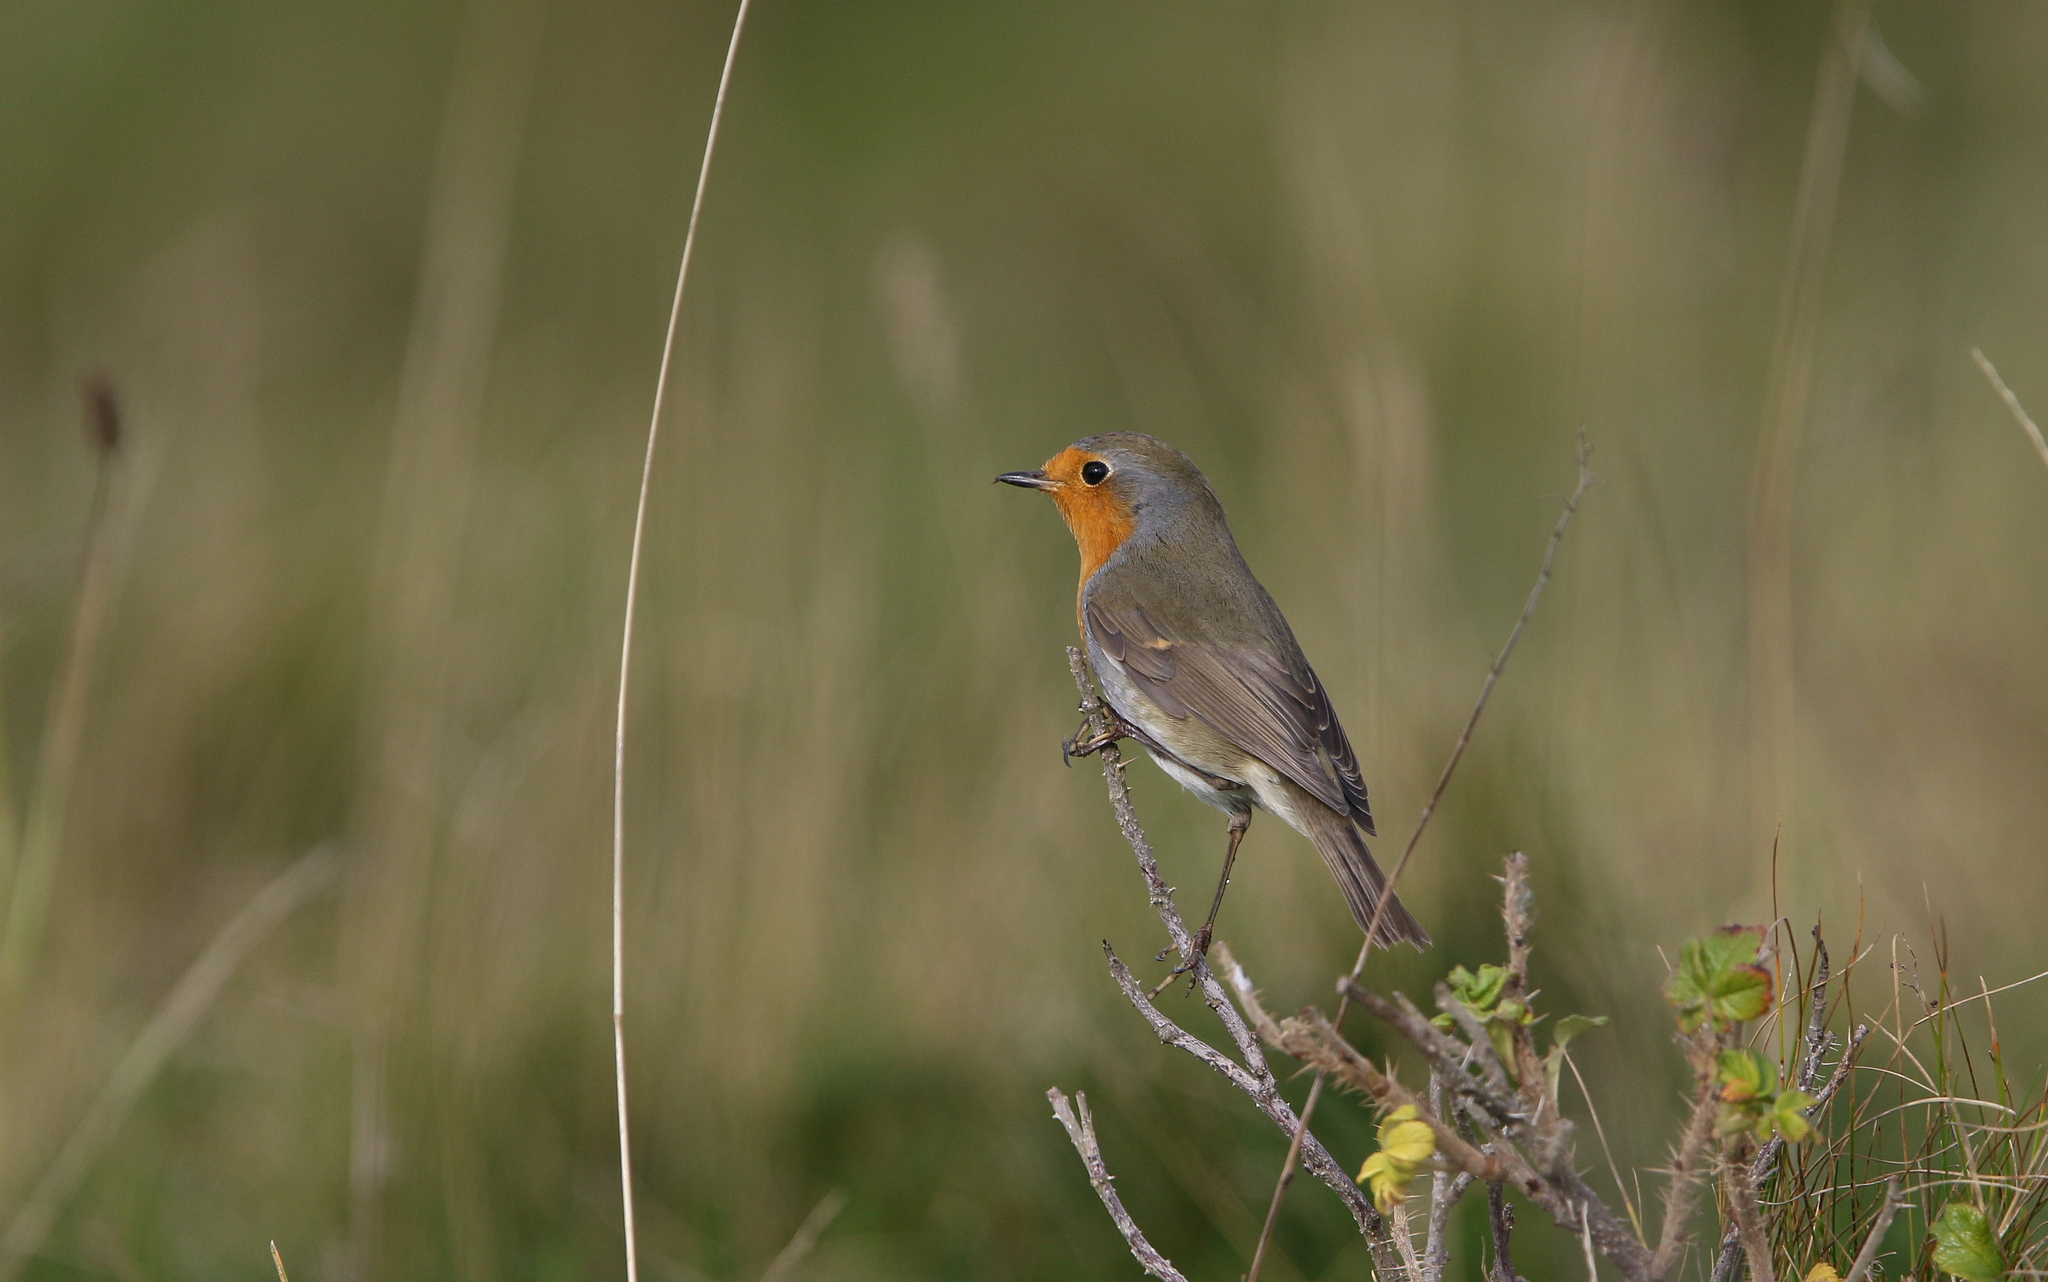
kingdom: Animalia
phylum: Chordata
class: Aves
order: Passeriformes
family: Muscicapidae
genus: Erithacus
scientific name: Erithacus rubecula
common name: European robin
